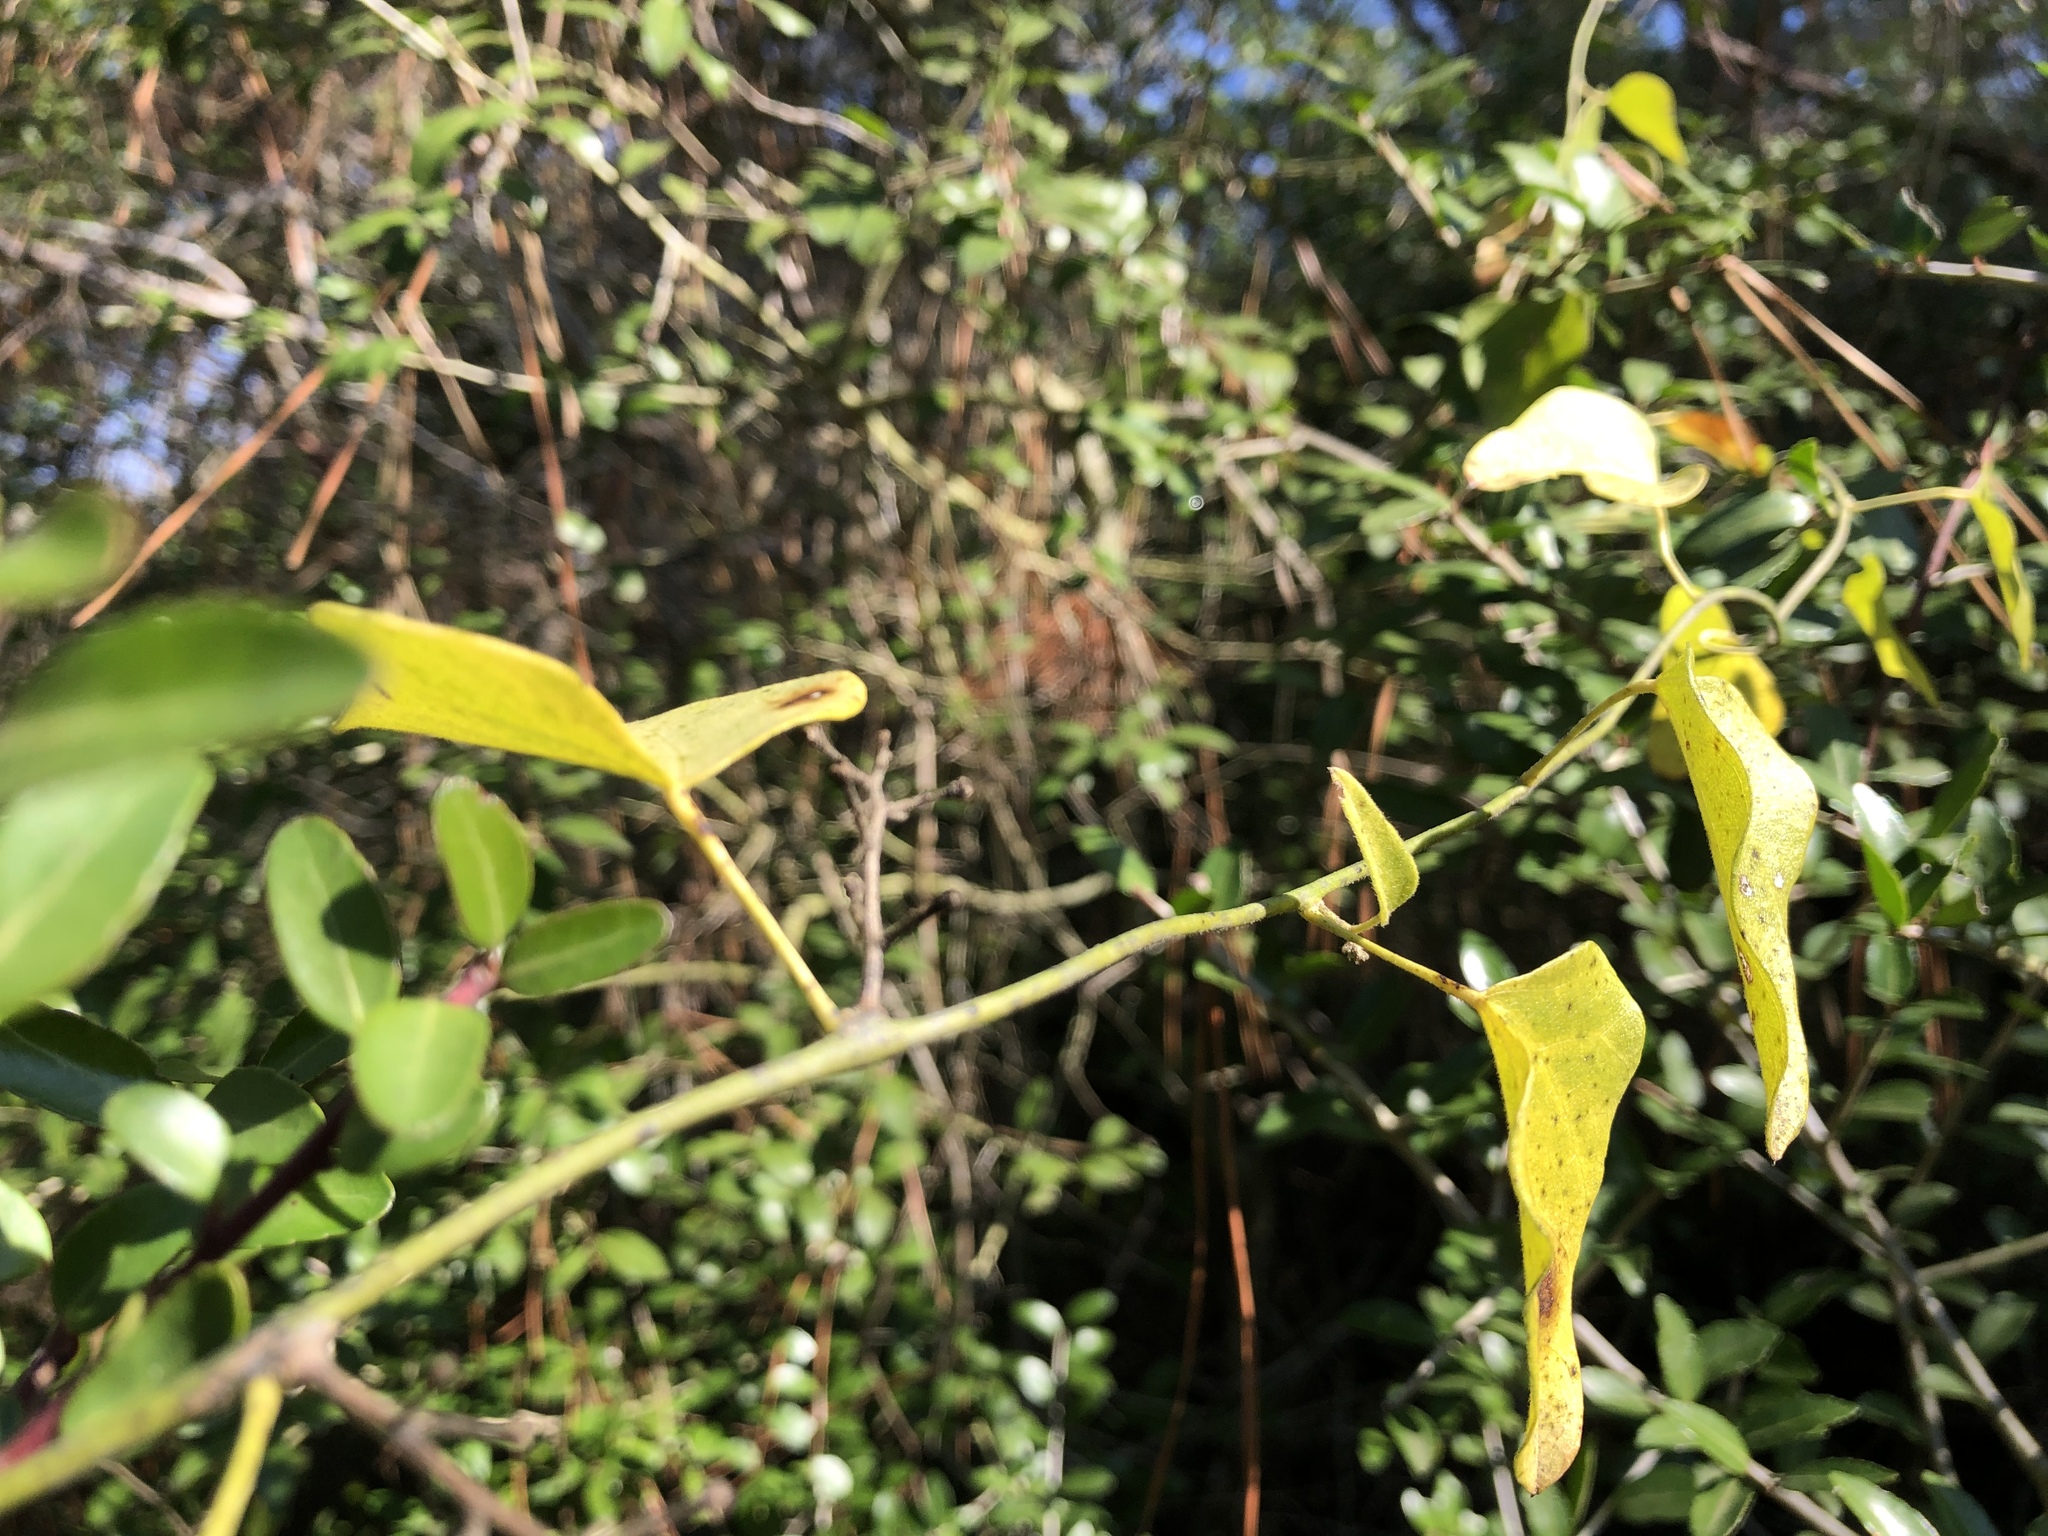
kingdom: Plantae
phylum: Tracheophyta
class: Liliopsida
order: Liliales
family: Smilacaceae
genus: Smilax
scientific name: Smilax bona-nox
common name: Catbrier
